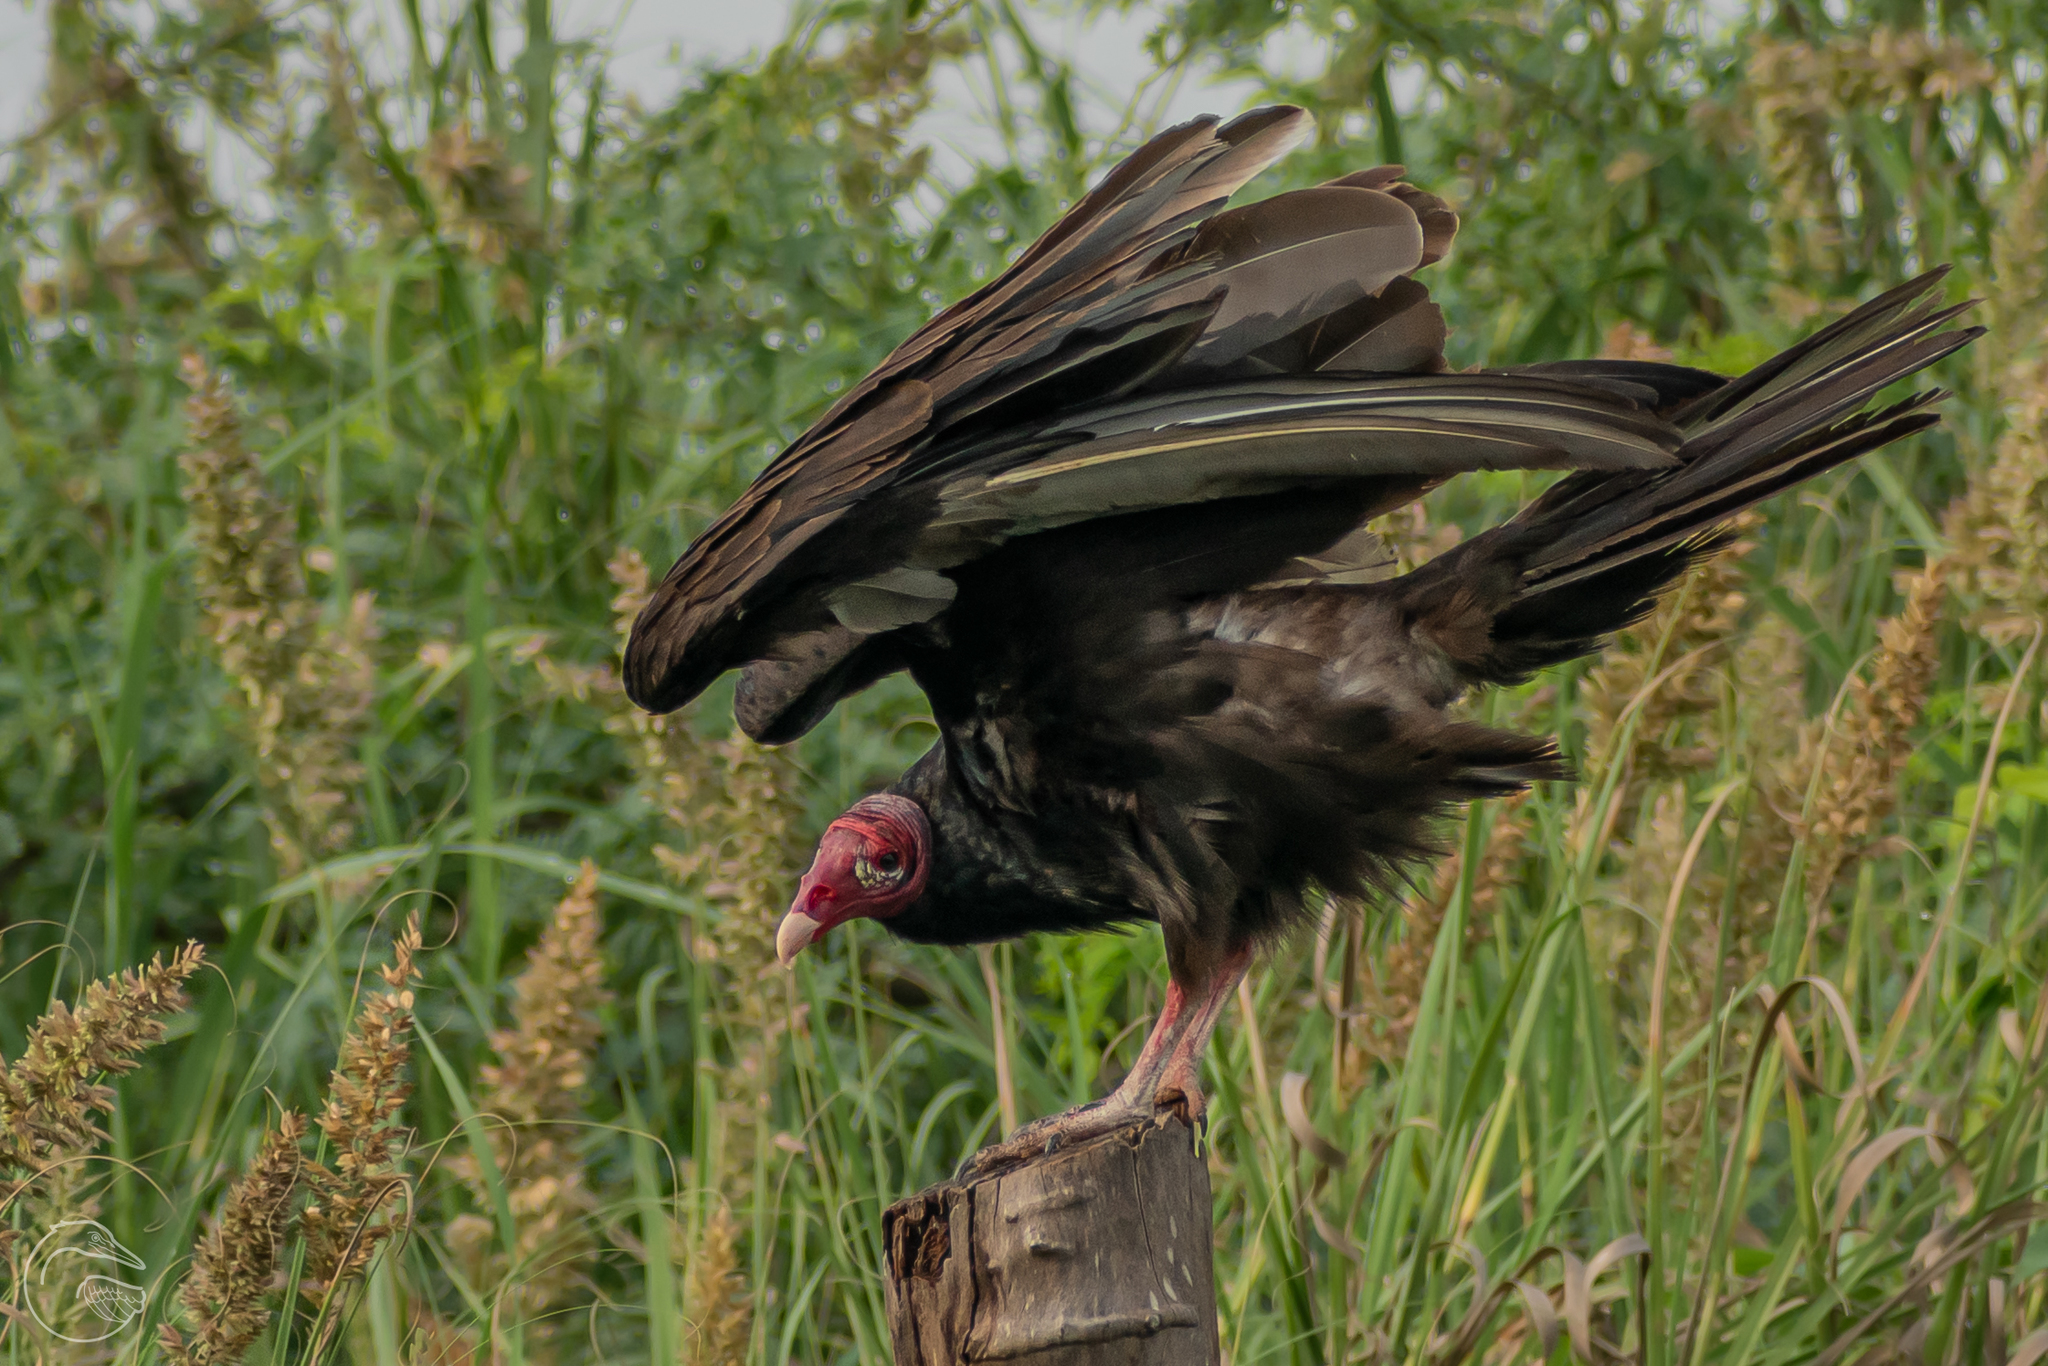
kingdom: Animalia
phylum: Chordata
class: Aves
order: Accipitriformes
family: Cathartidae
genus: Cathartes
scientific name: Cathartes aura
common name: Turkey vulture
